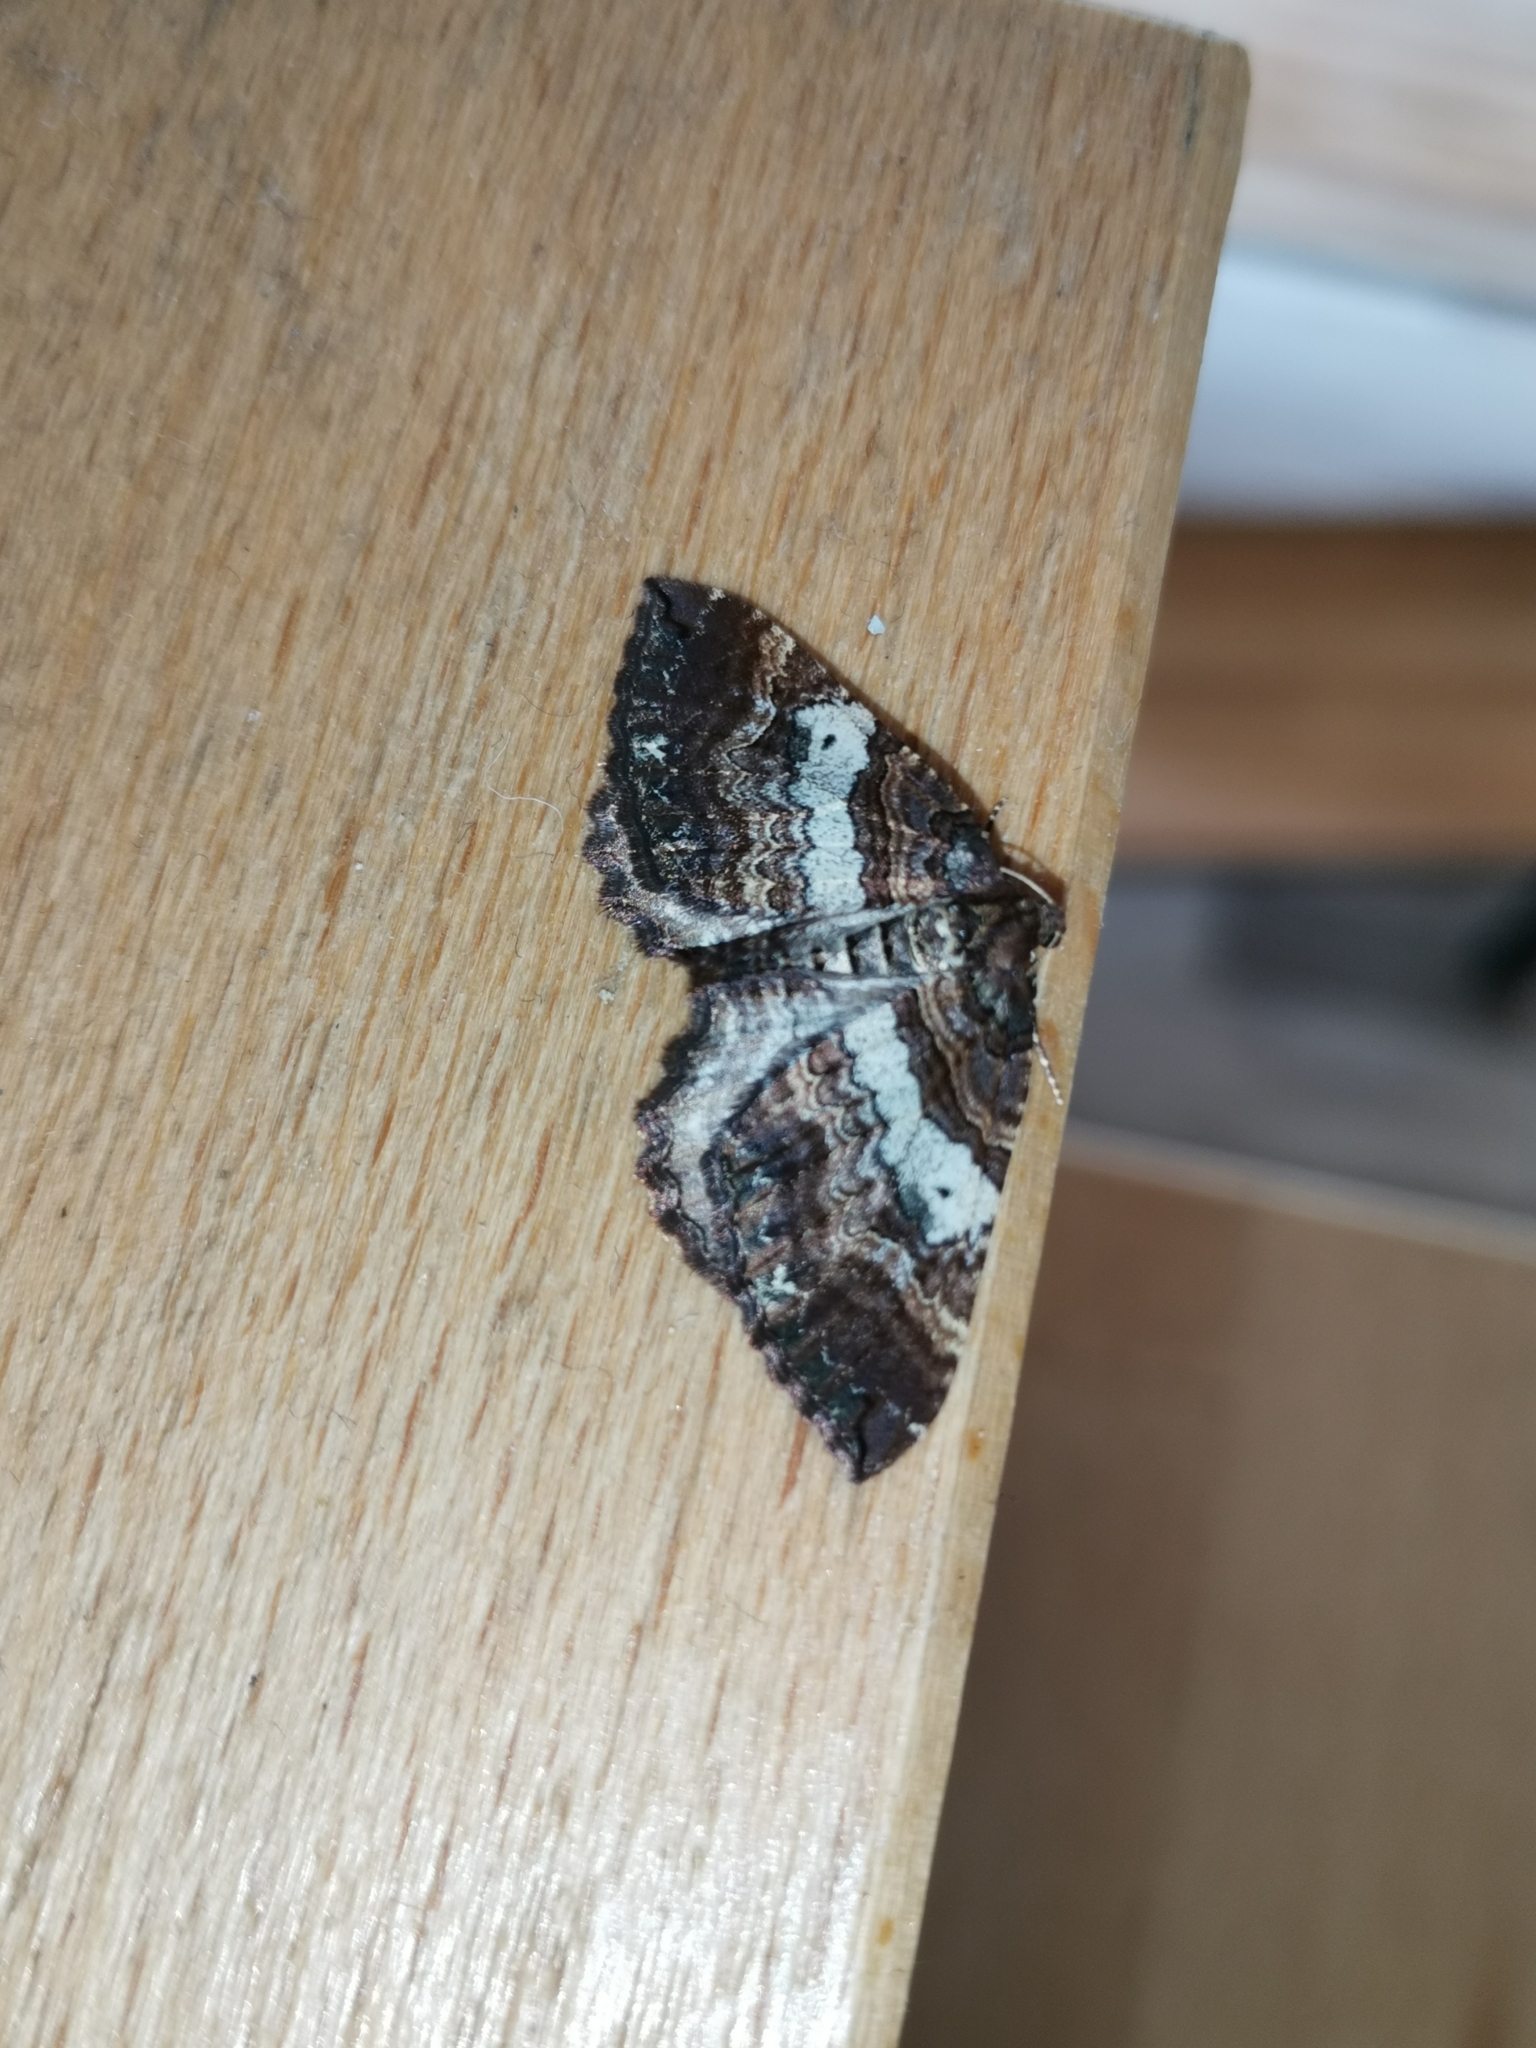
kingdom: Animalia
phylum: Arthropoda
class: Insecta
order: Lepidoptera
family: Geometridae
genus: Anticlea
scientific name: Anticlea badiata
